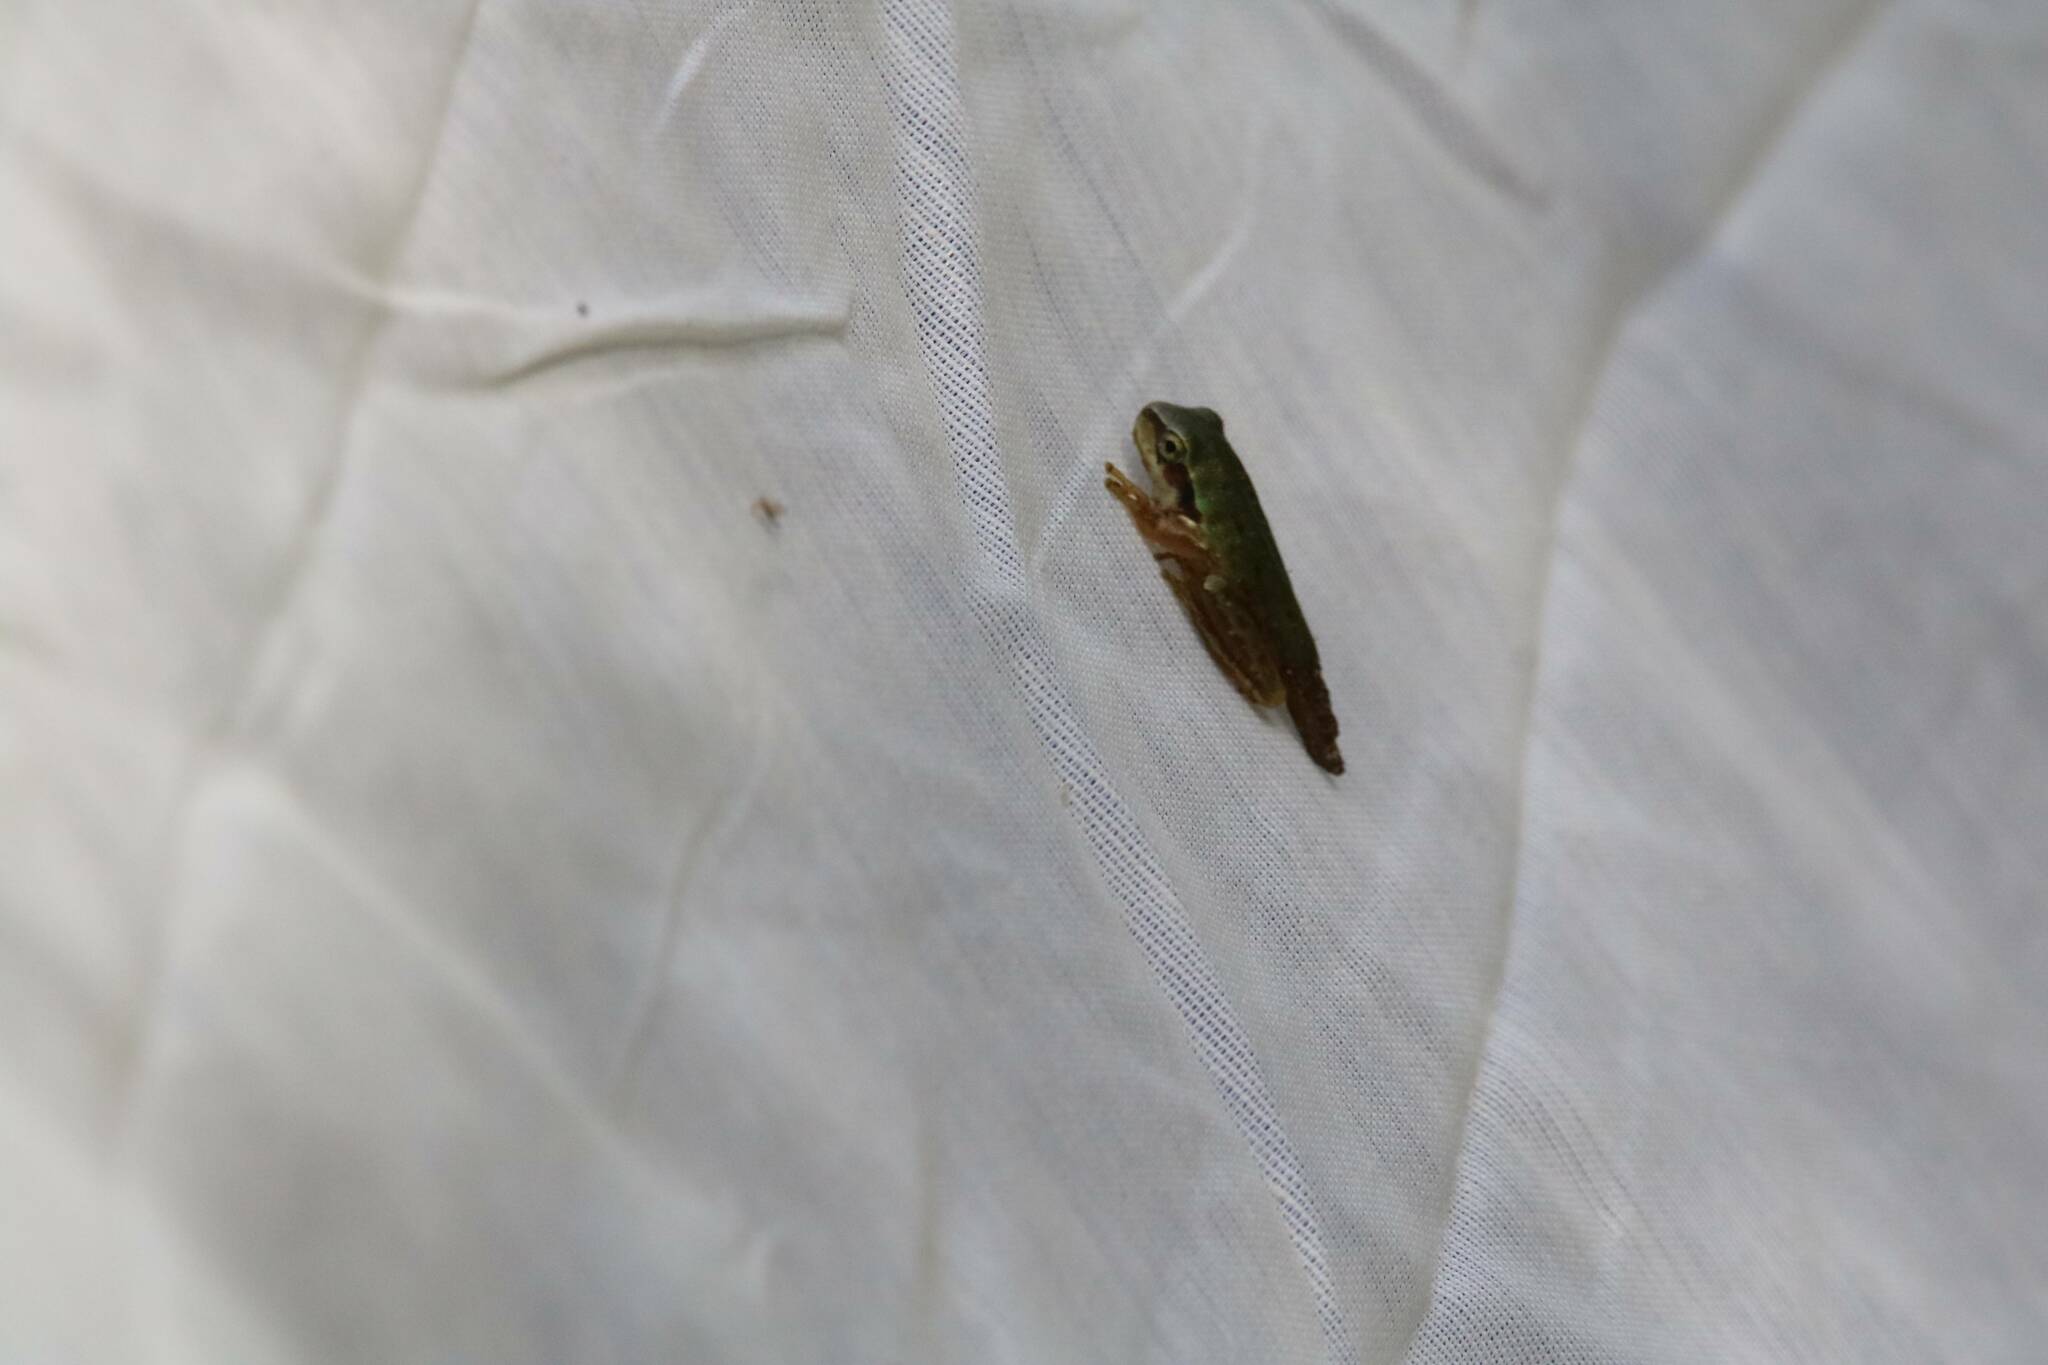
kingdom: Animalia
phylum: Chordata
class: Amphibia
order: Anura
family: Hylidae
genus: Hyla
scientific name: Hyla meridionalis
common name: Stripeless tree frog
